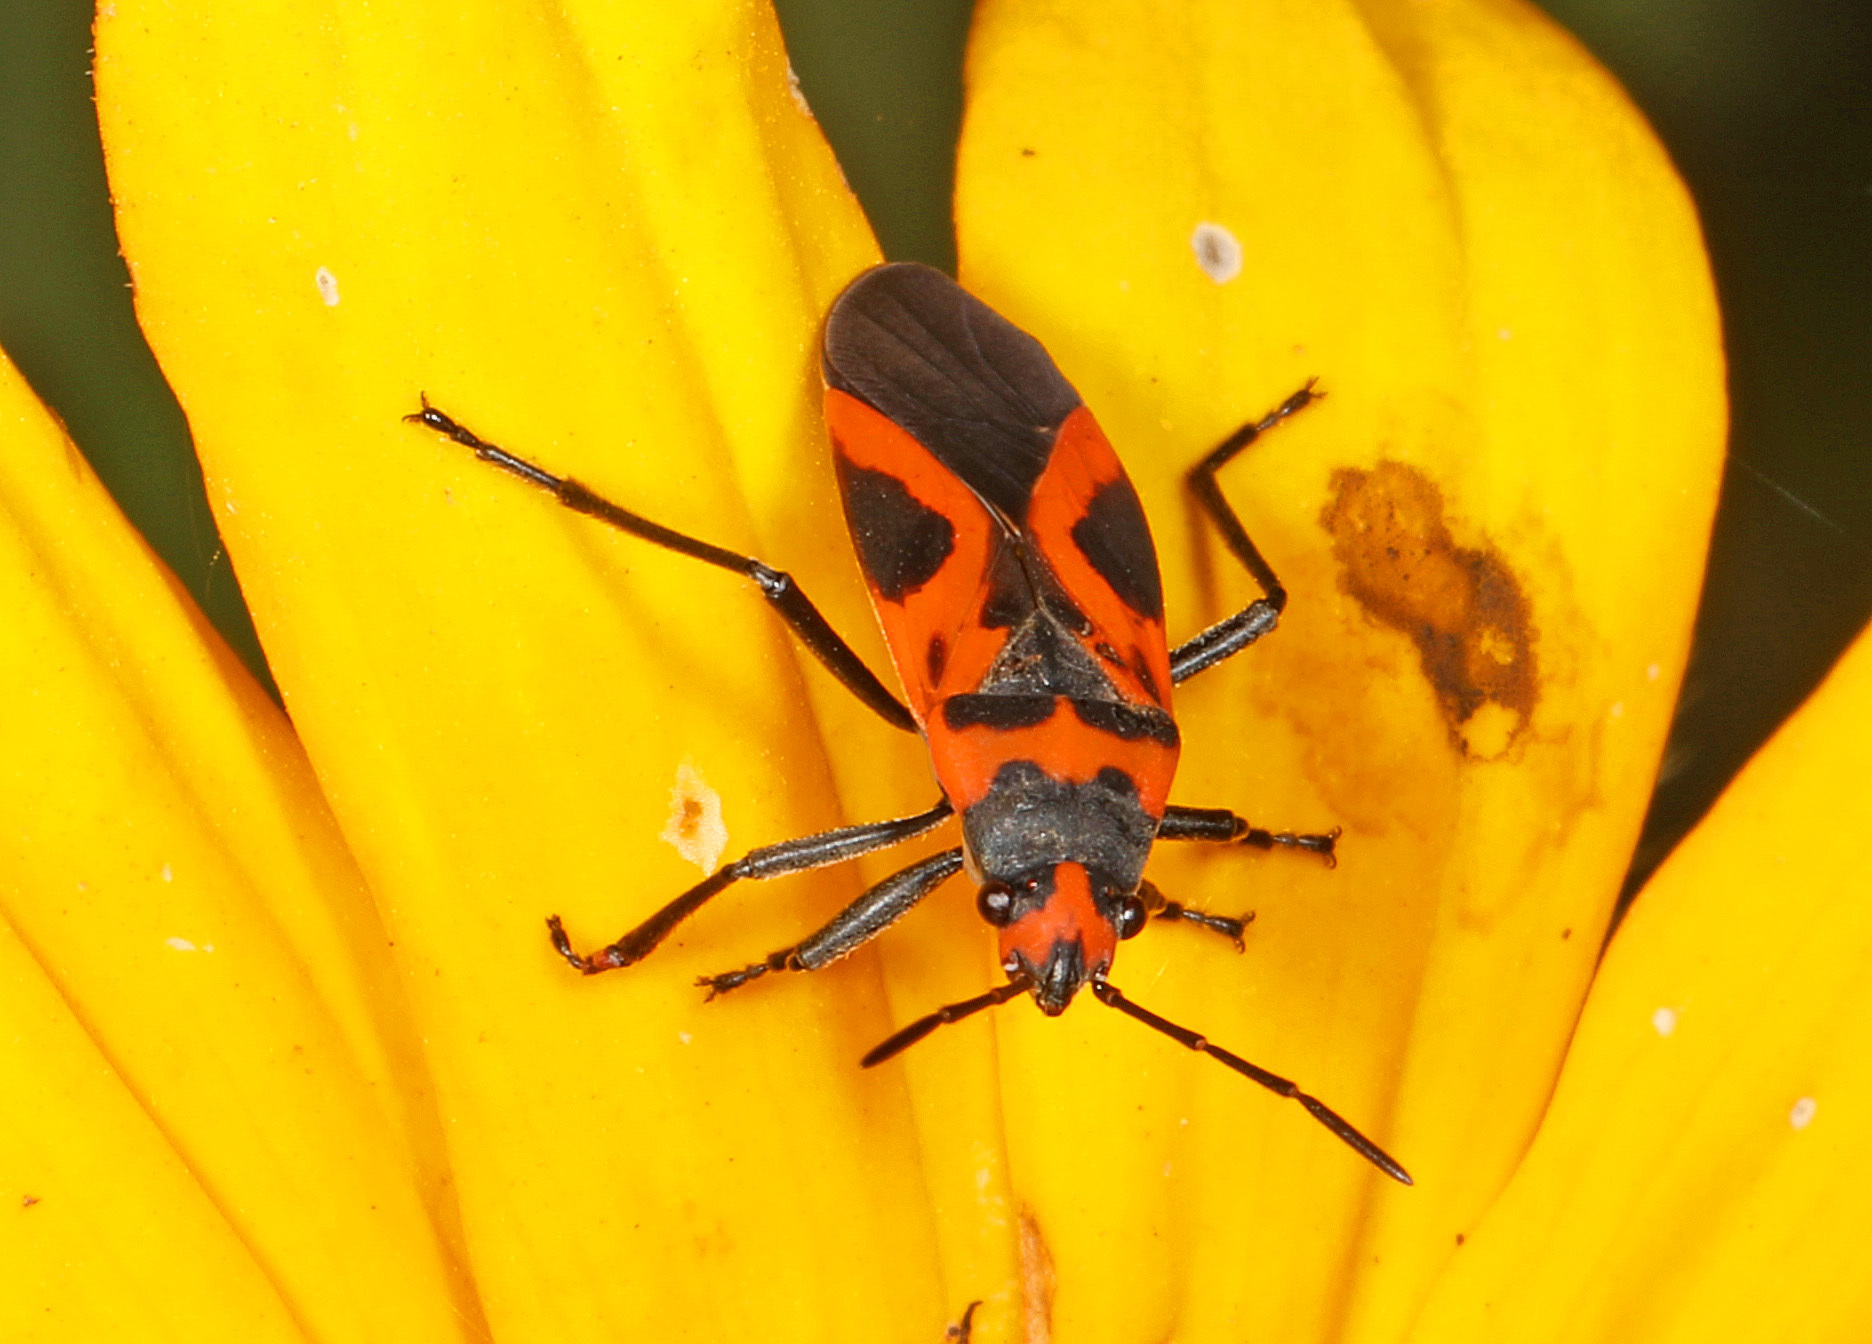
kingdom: Animalia
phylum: Arthropoda
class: Insecta
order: Hemiptera
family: Lygaeidae
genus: Lygaeus
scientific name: Lygaeus turcicus
